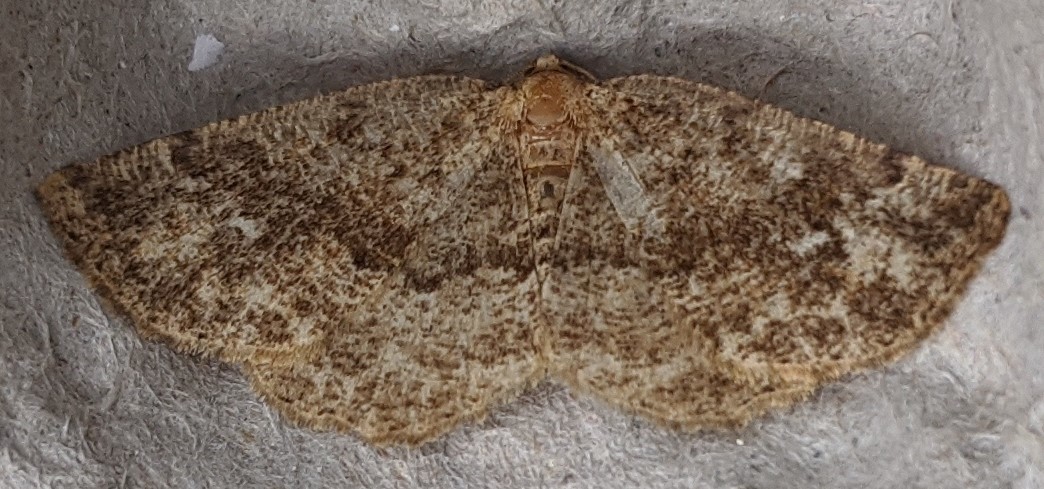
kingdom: Animalia
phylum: Arthropoda
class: Insecta
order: Lepidoptera
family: Geometridae
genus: Homochlodes
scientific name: Homochlodes fritillaria
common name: Pale homochlodes
